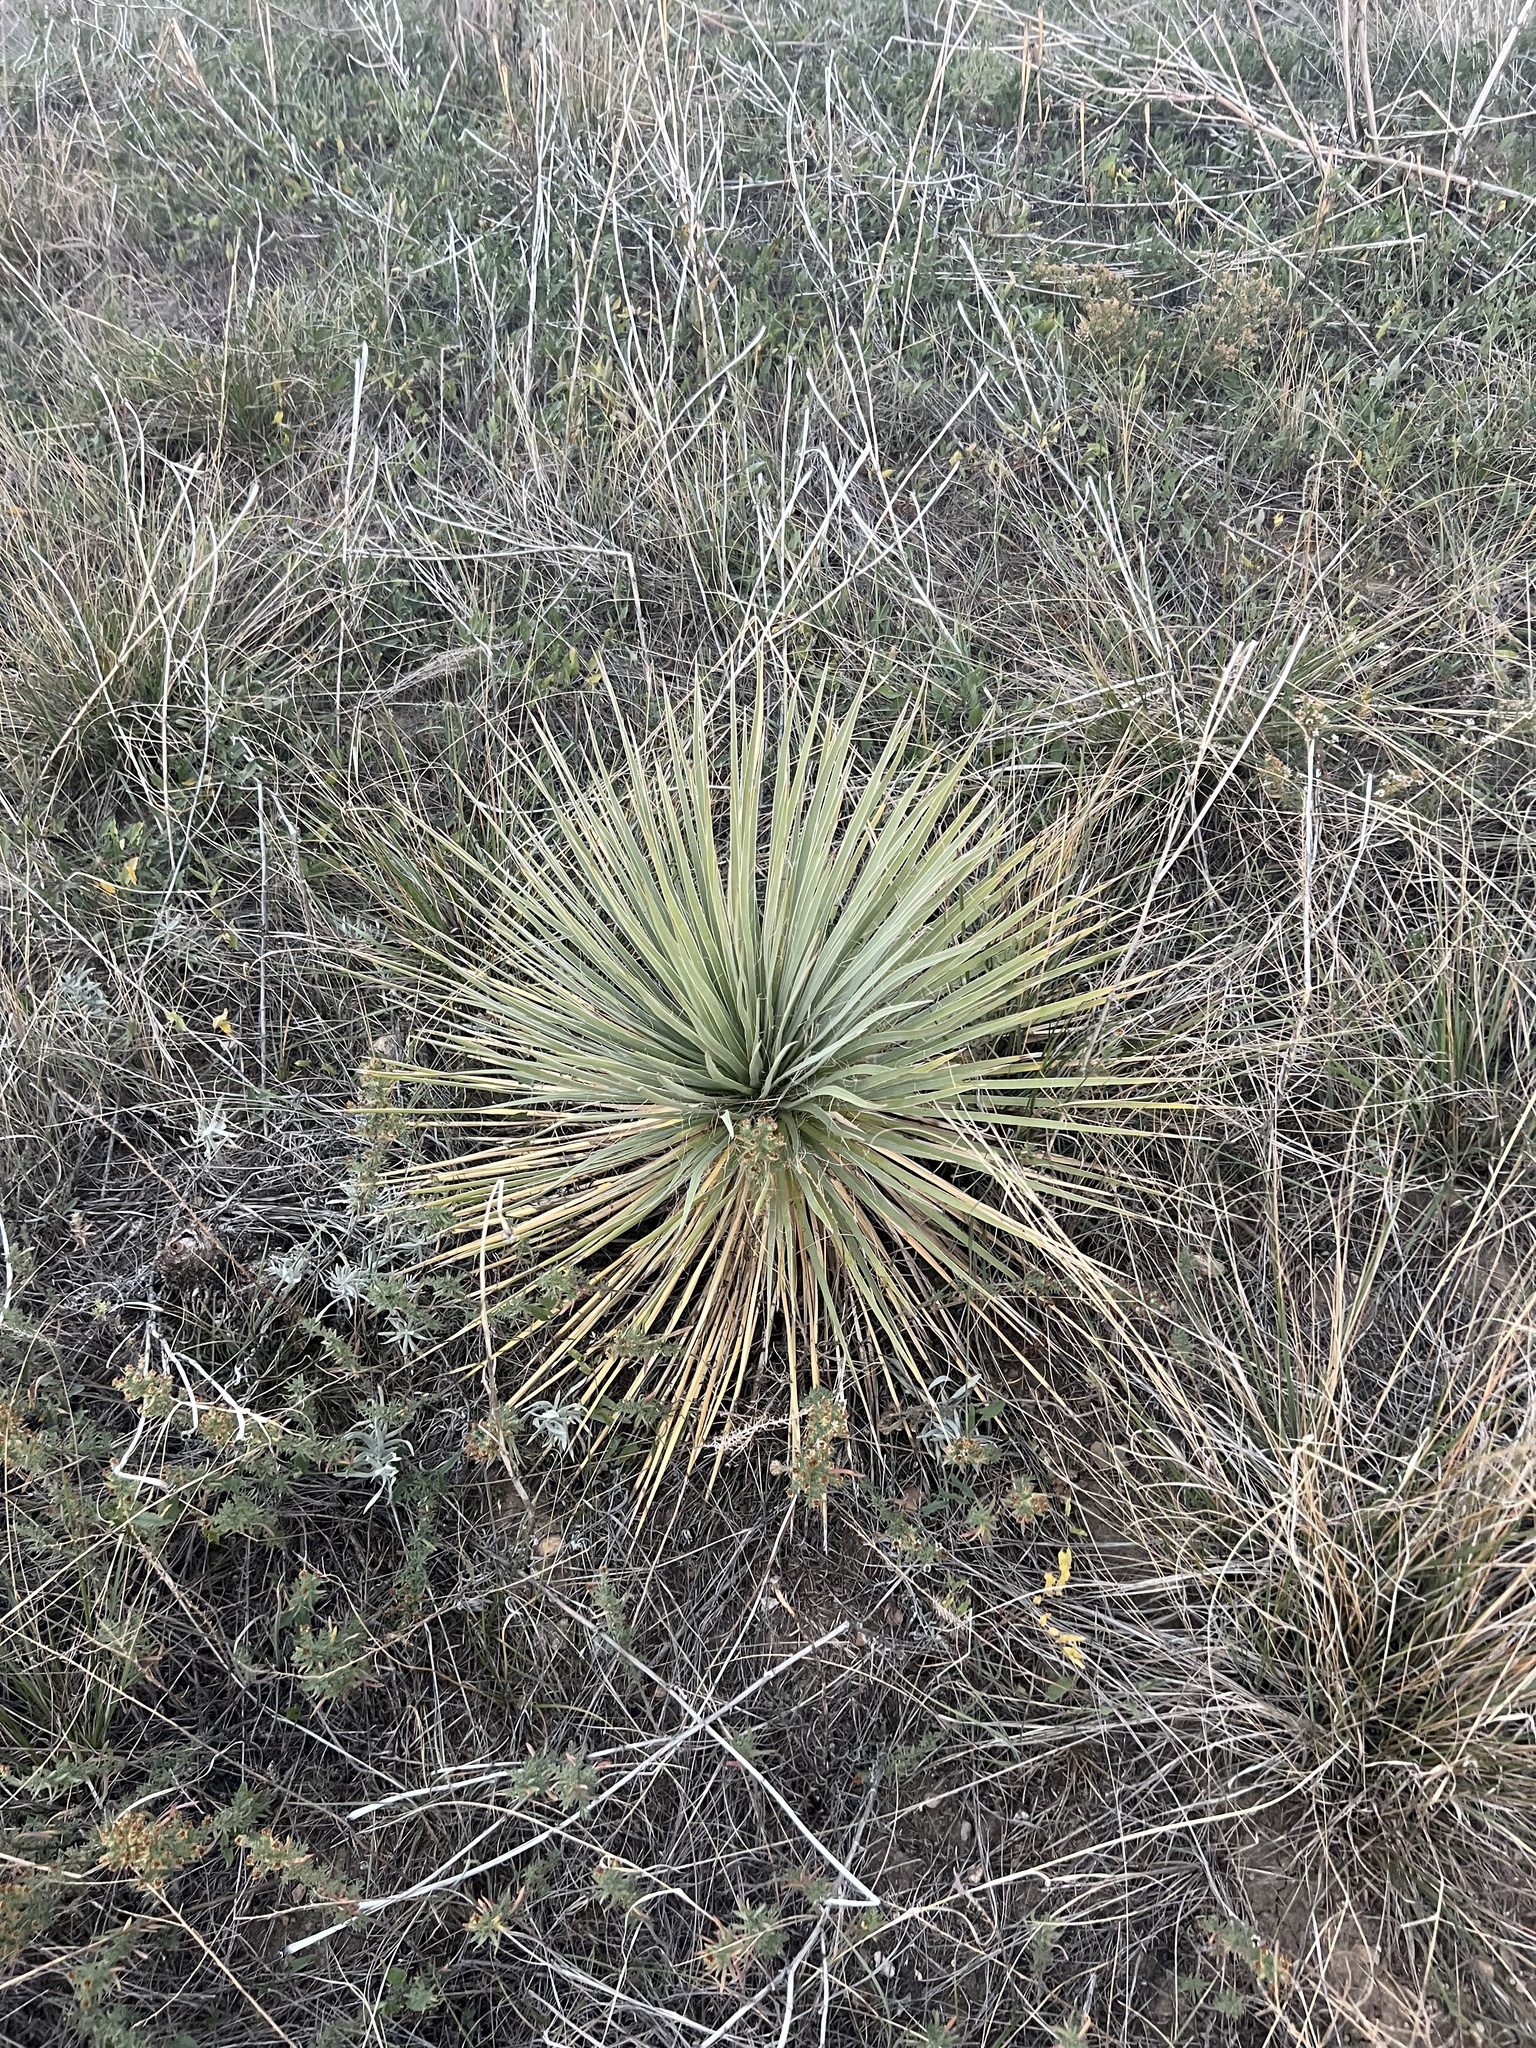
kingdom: Plantae
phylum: Tracheophyta
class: Liliopsida
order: Asparagales
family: Asparagaceae
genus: Yucca
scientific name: Yucca glauca
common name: Great plains yucca
